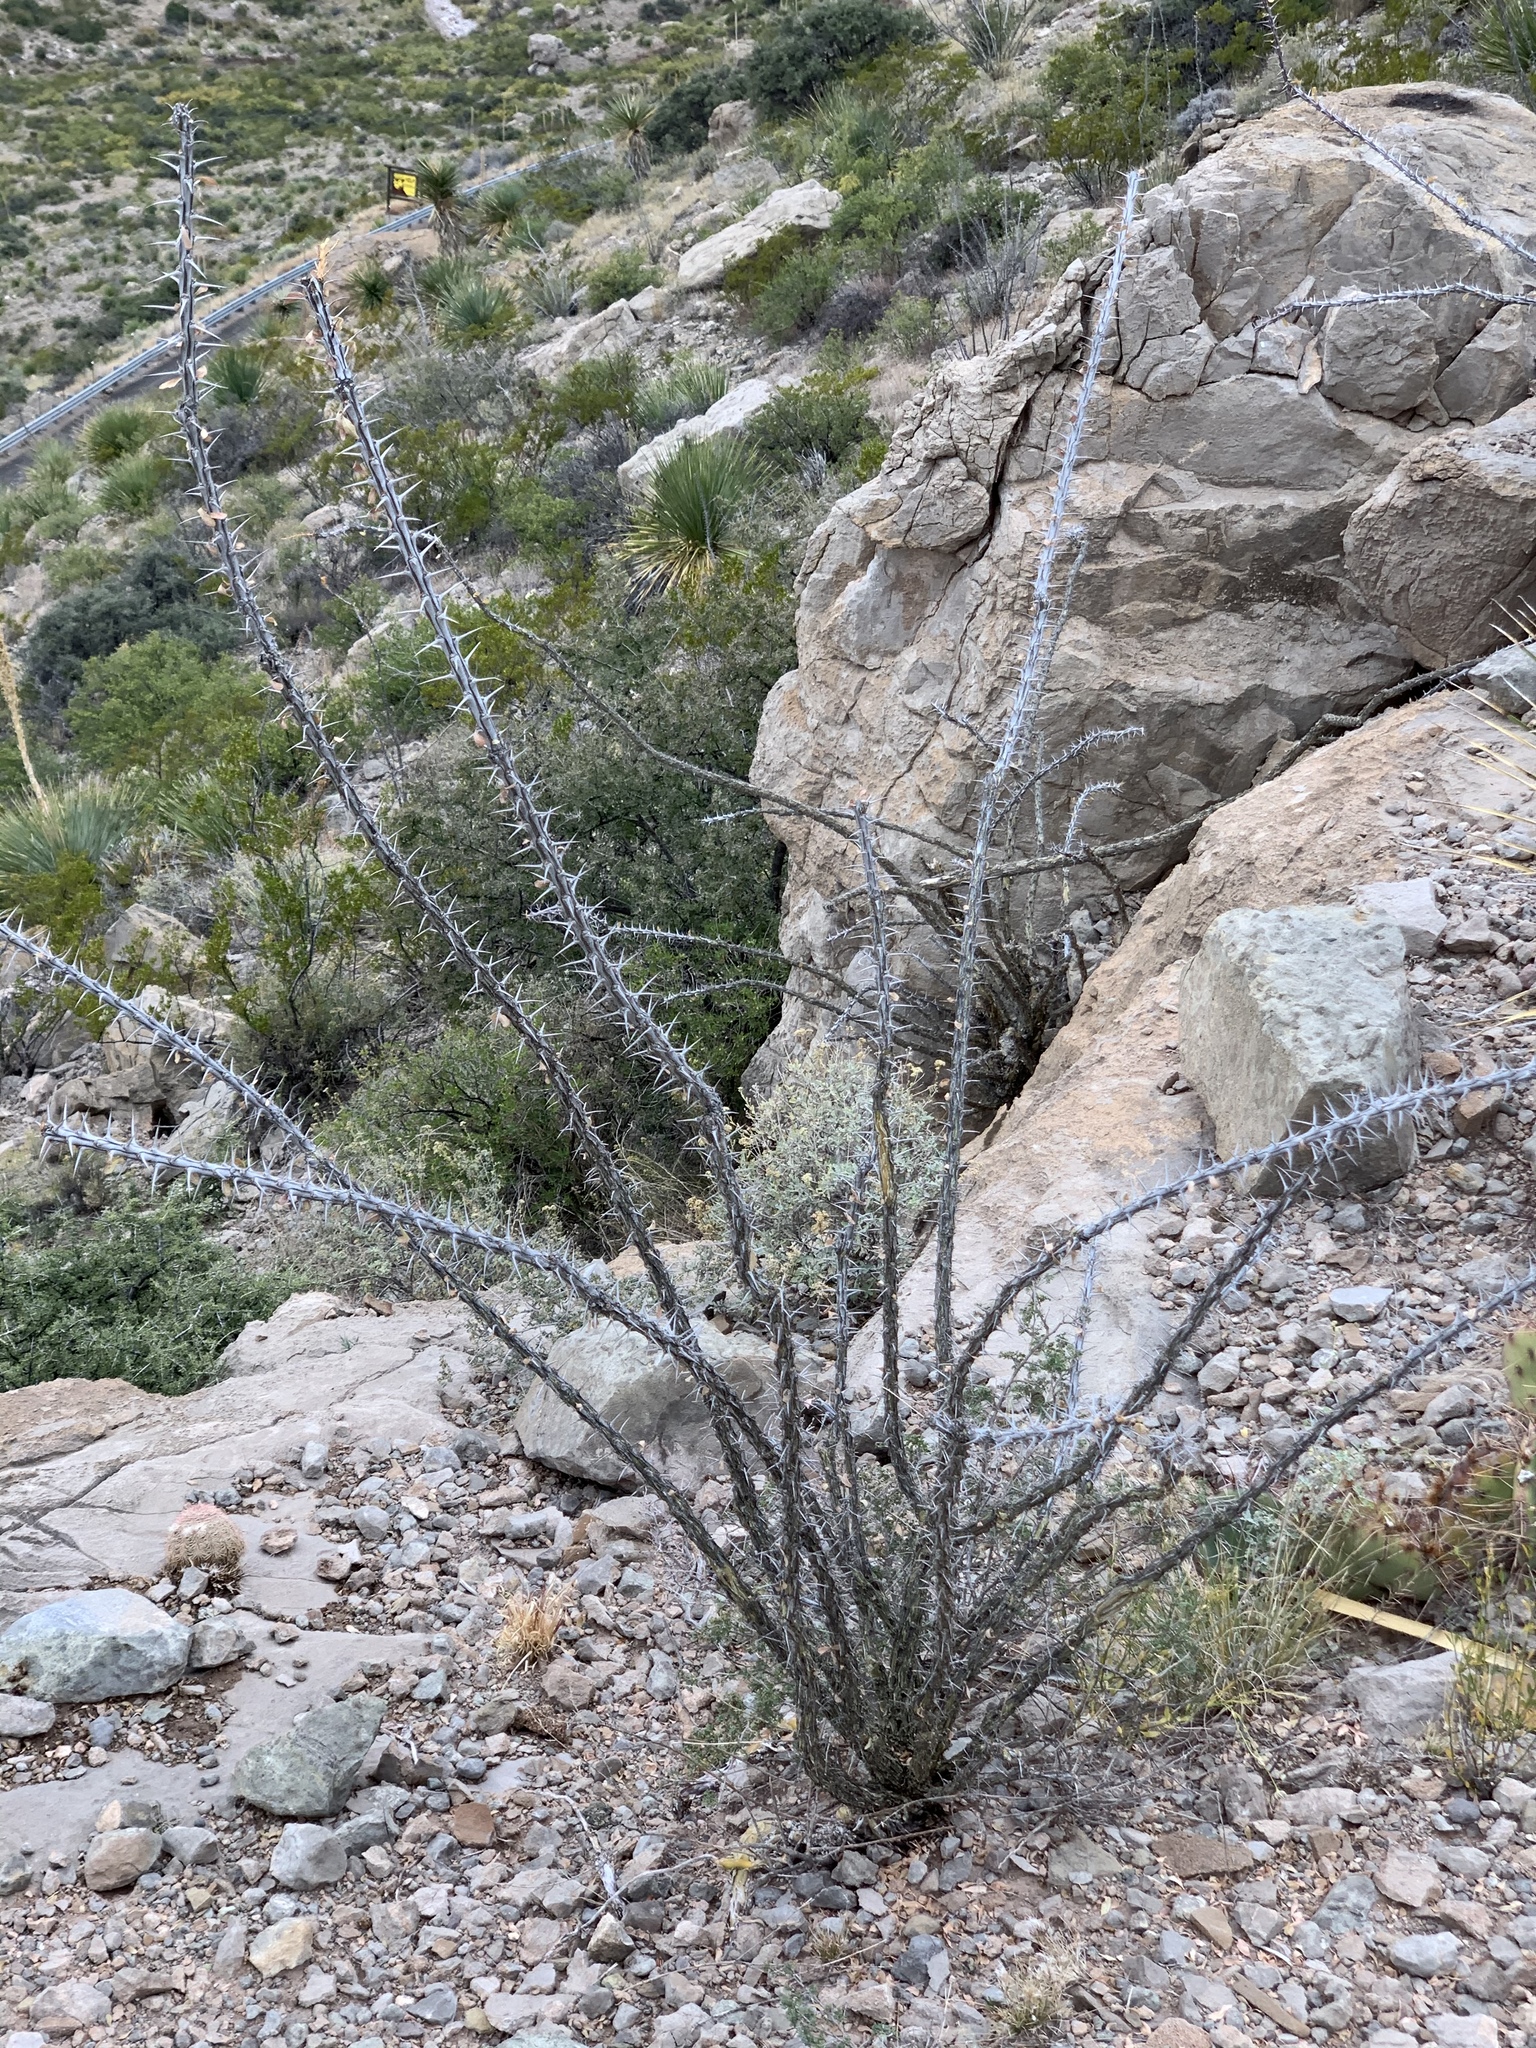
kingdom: Plantae
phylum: Tracheophyta
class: Magnoliopsida
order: Ericales
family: Fouquieriaceae
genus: Fouquieria
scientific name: Fouquieria splendens
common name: Vine-cactus
